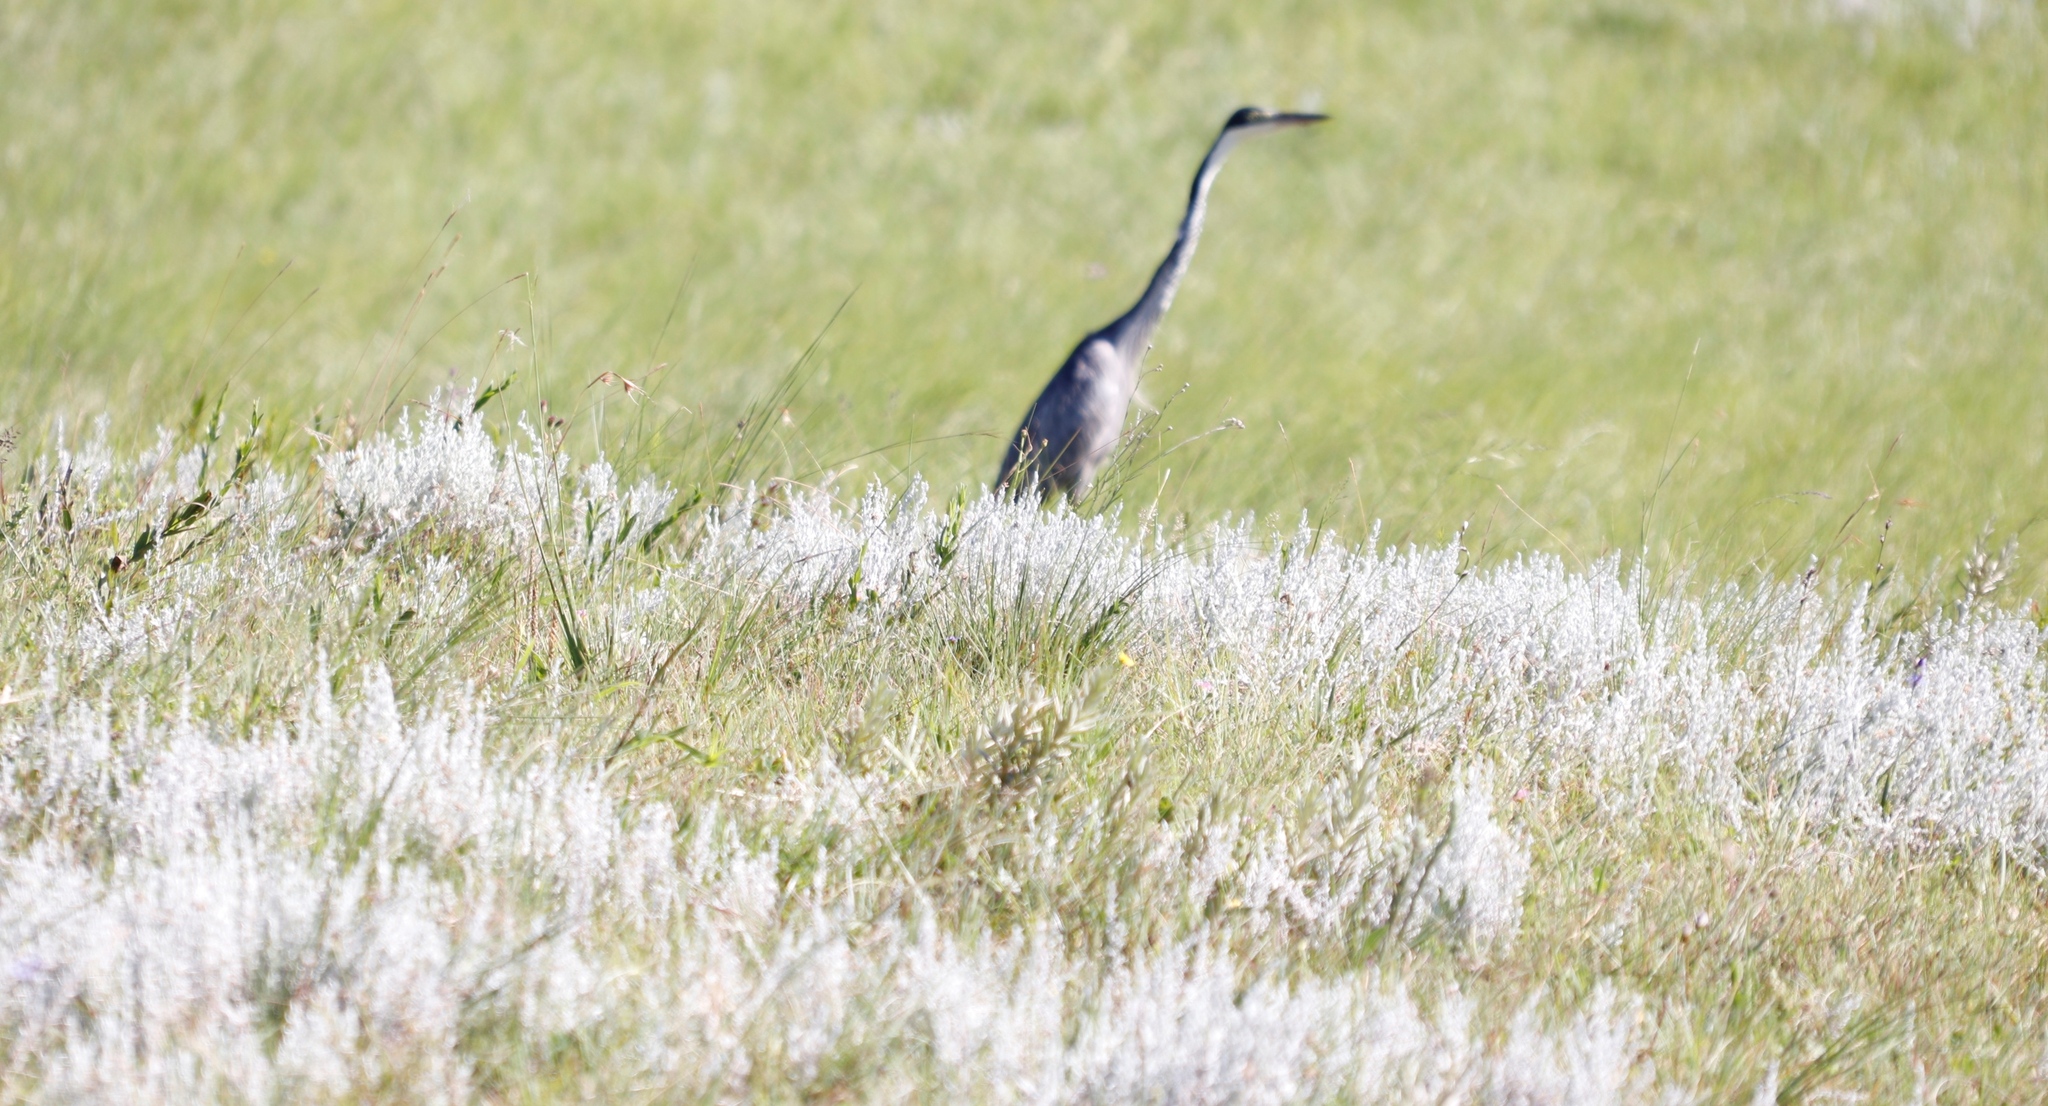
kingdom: Animalia
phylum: Chordata
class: Aves
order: Pelecaniformes
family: Ardeidae
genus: Ardea
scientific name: Ardea melanocephala
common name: Black-headed heron
